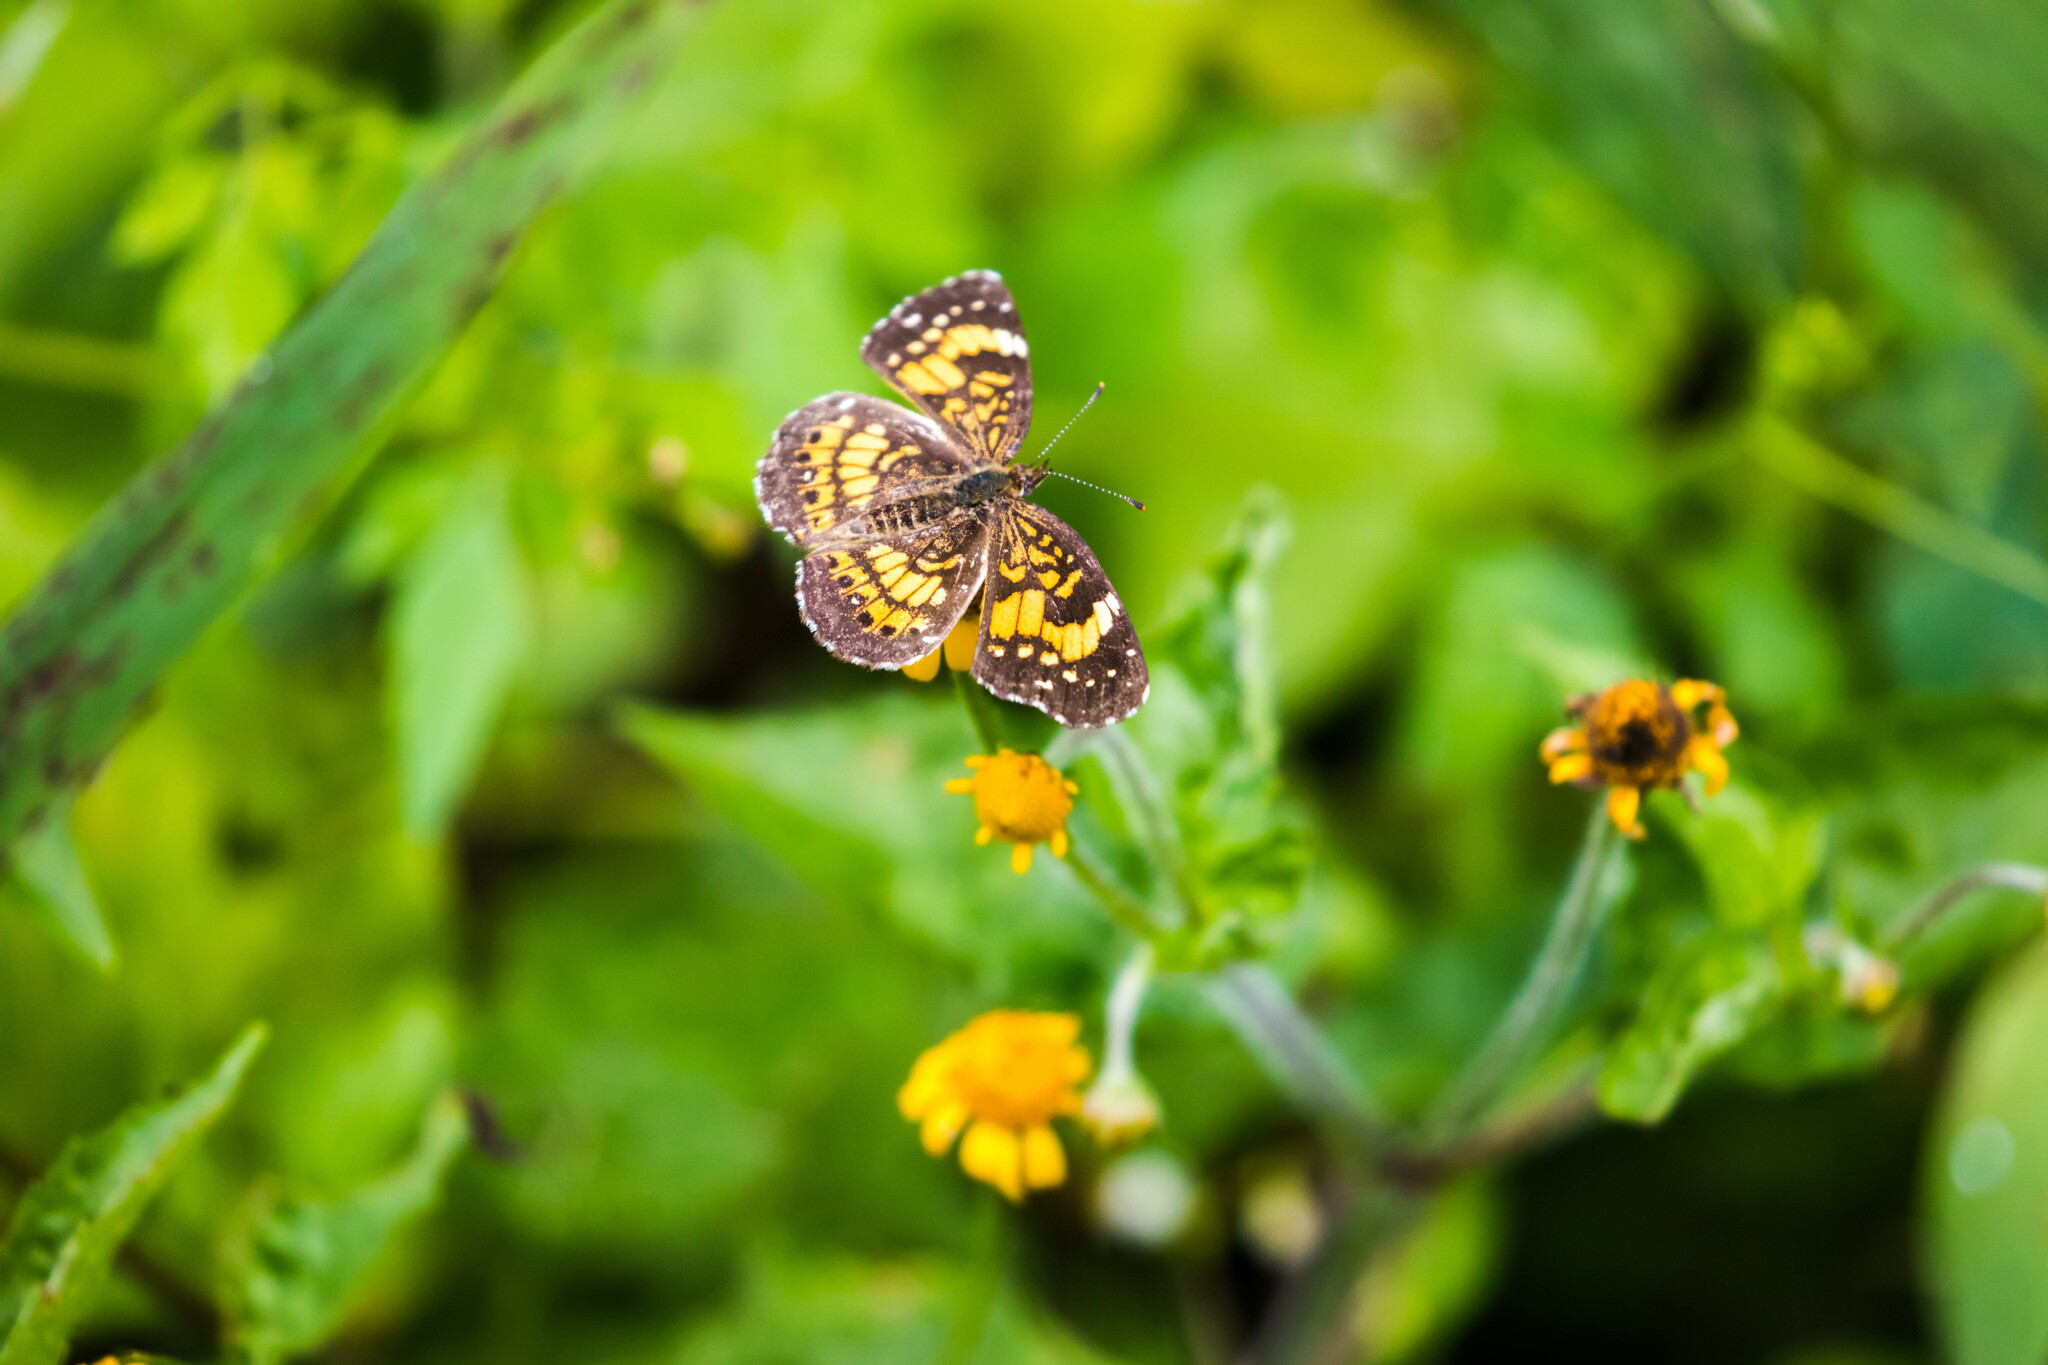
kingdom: Animalia
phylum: Arthropoda
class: Insecta
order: Lepidoptera
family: Nymphalidae
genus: Chlosyne
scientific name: Chlosyne nycteis
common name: Silvery checkerspot
